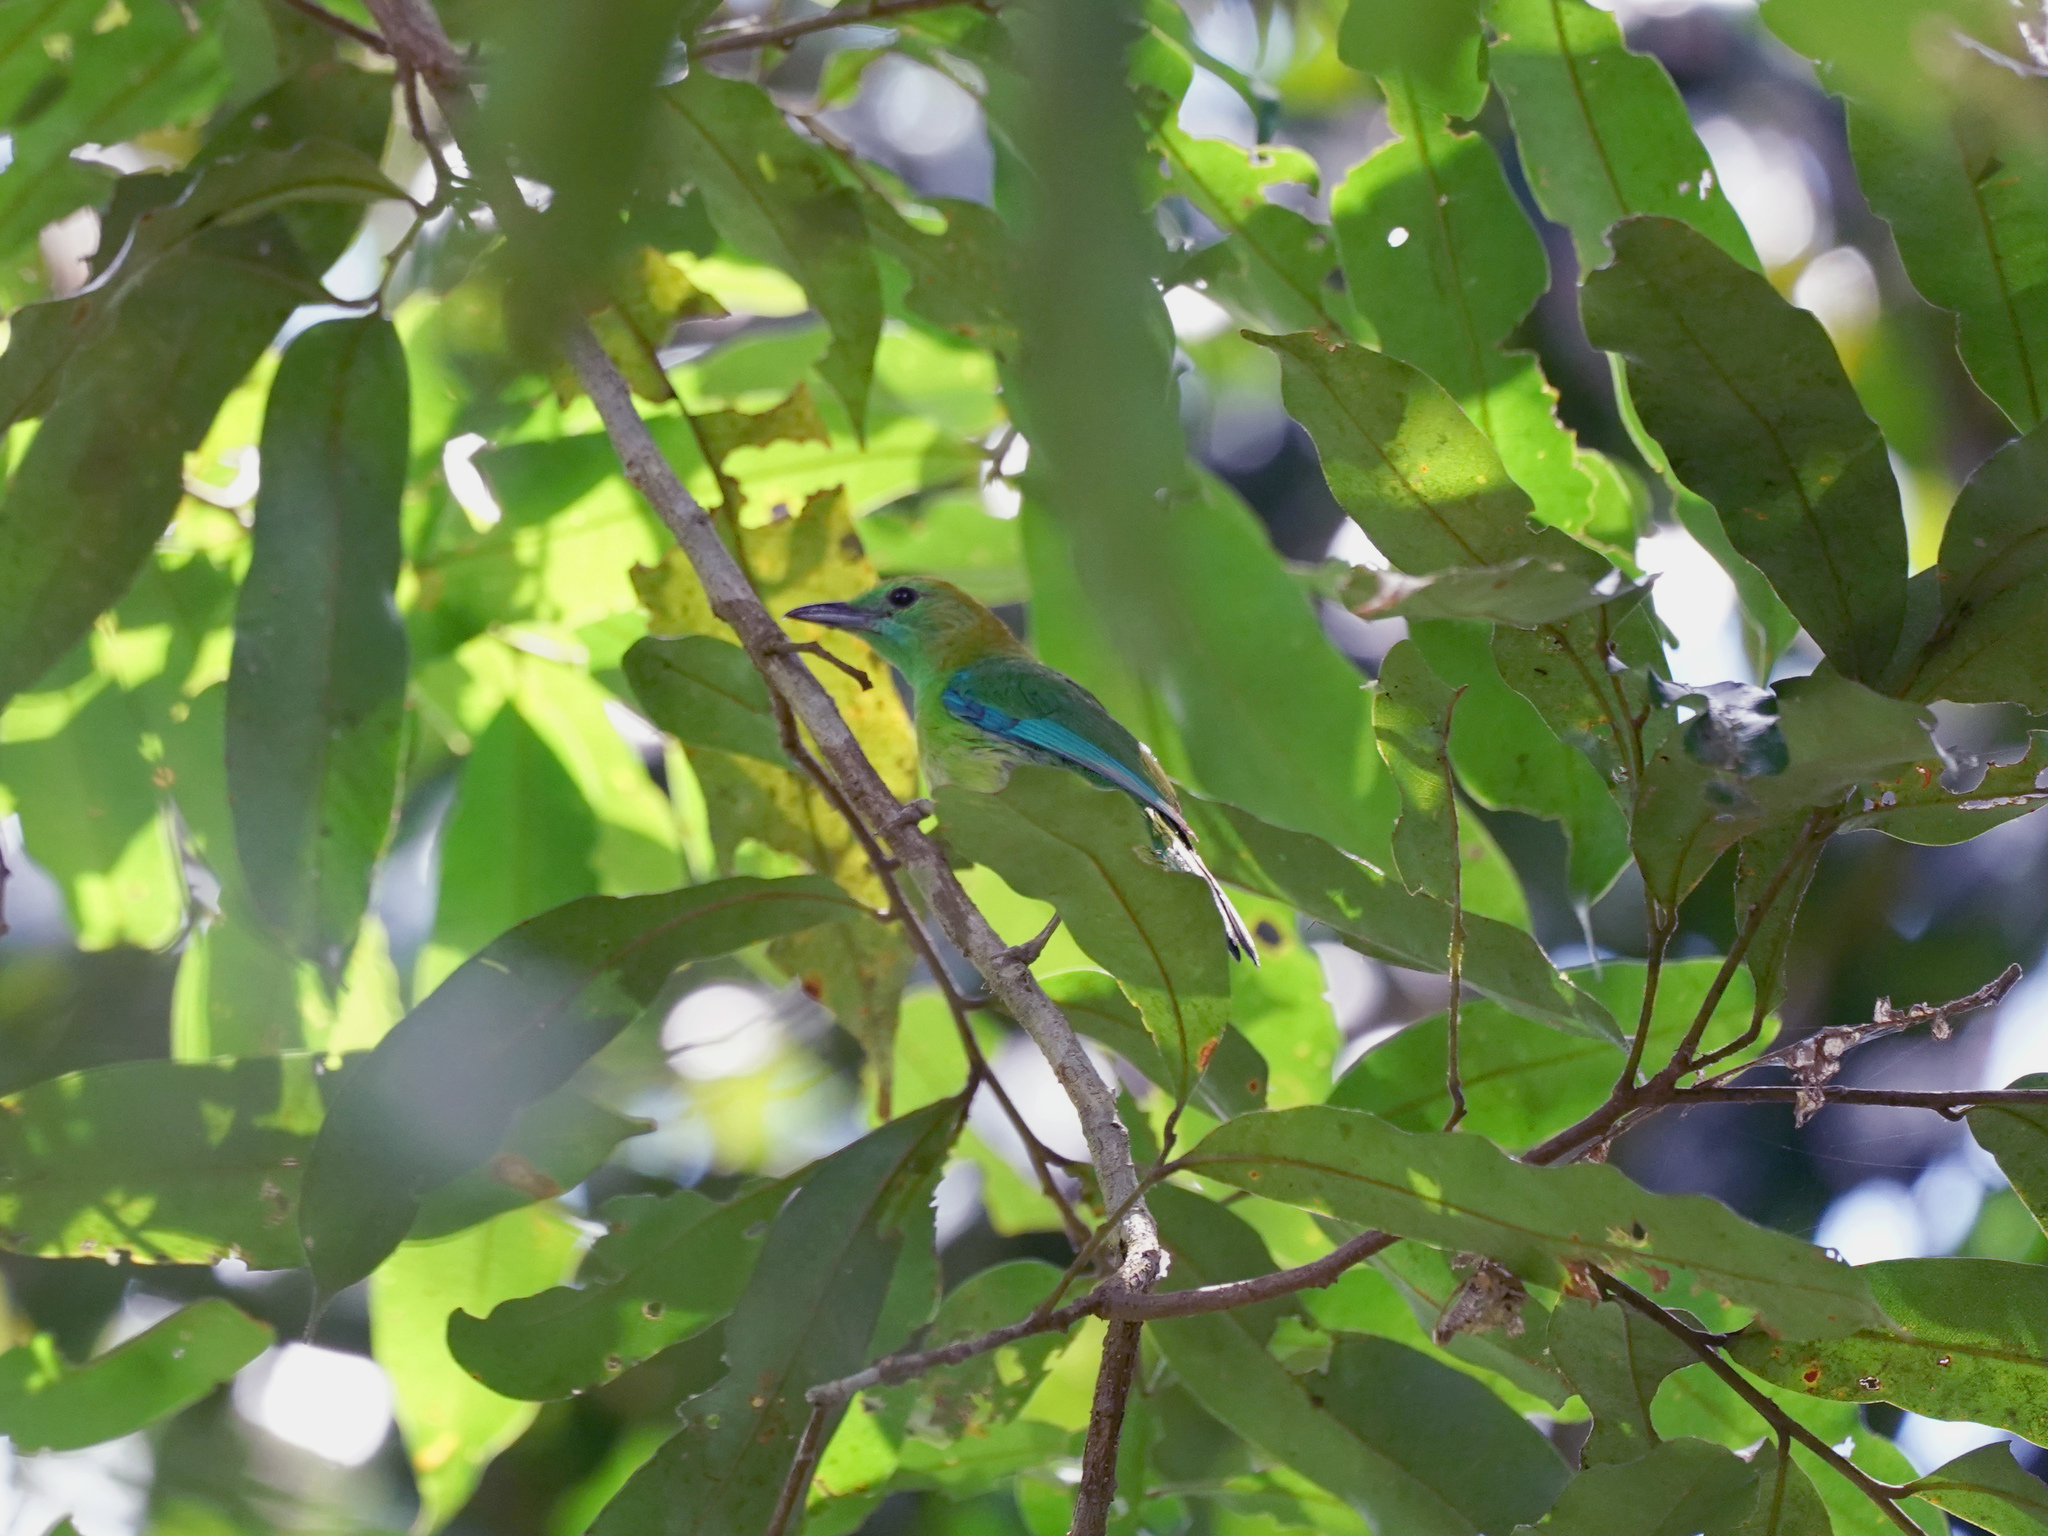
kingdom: Animalia
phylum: Chordata
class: Aves
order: Passeriformes
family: Chloropseidae
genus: Chloropsis
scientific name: Chloropsis moluccensis
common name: Blue-winged leafbird
